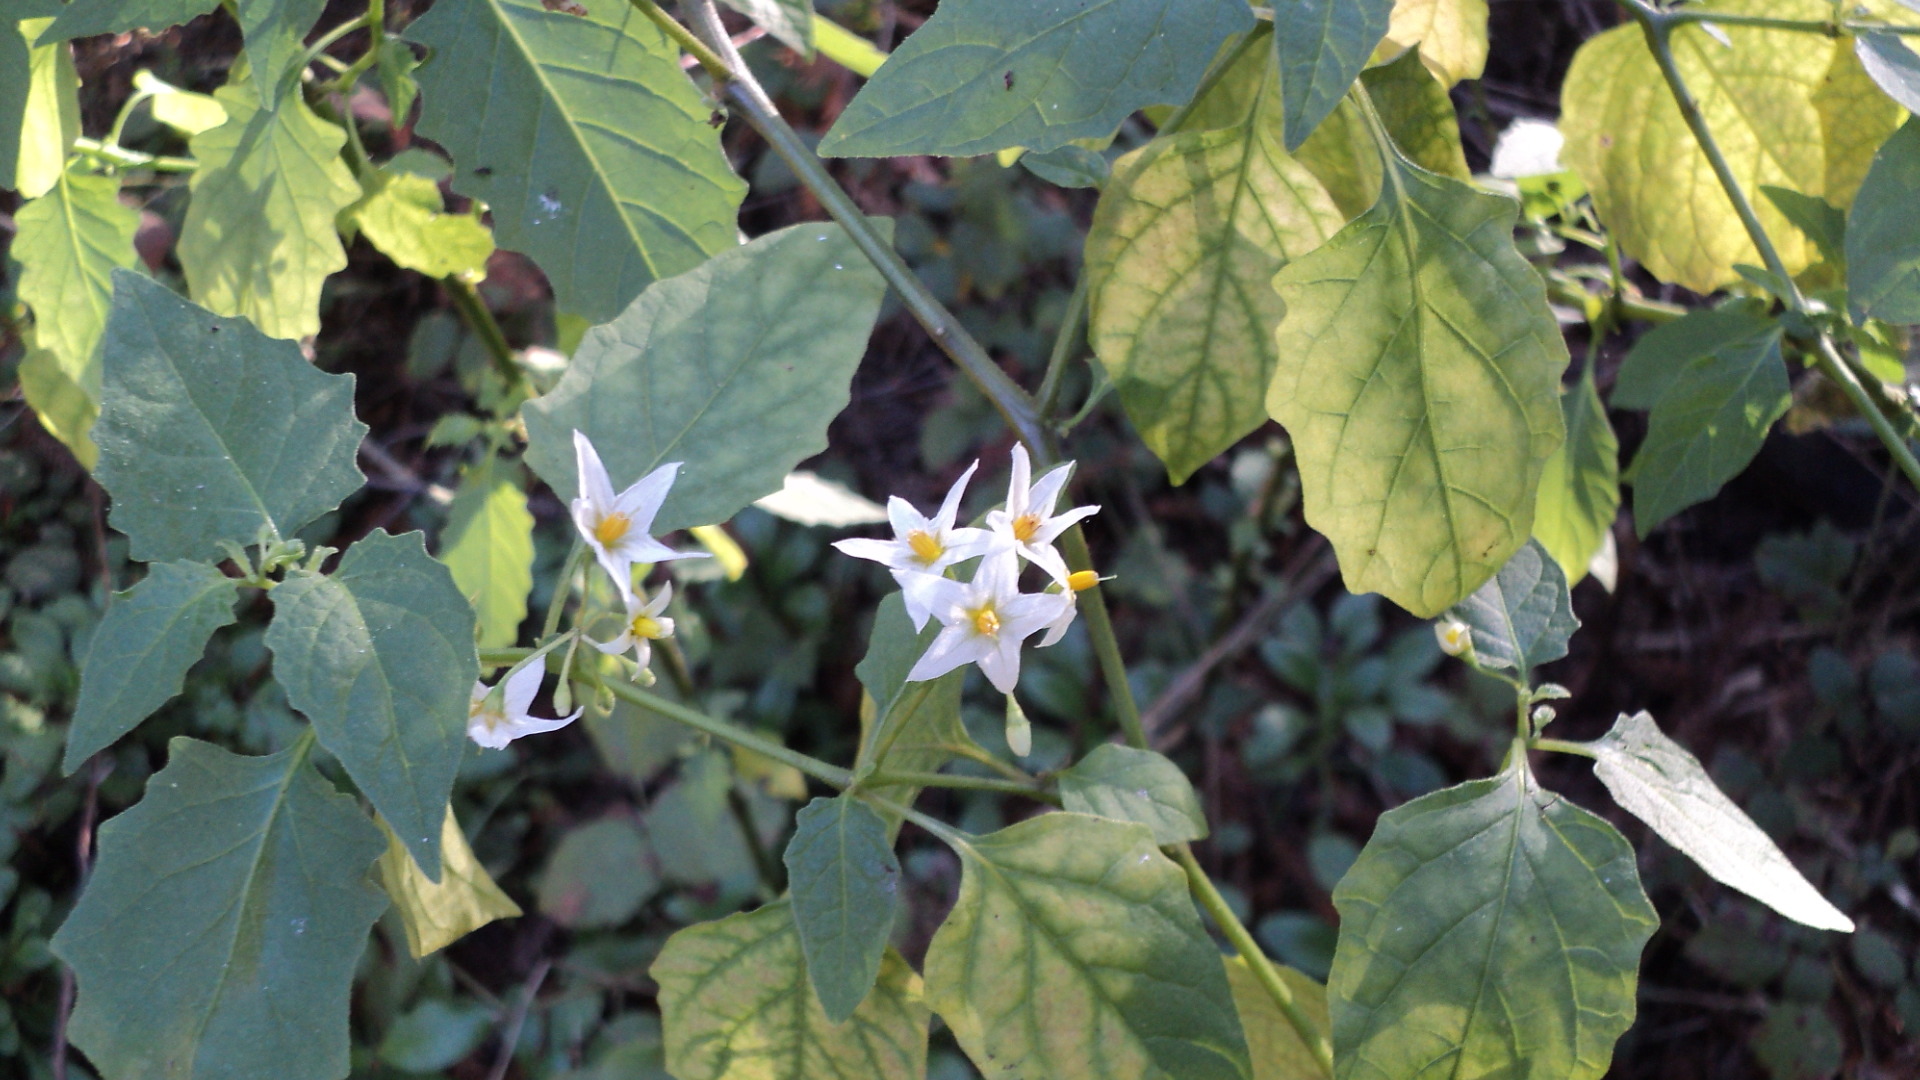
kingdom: Plantae
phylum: Tracheophyta
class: Magnoliopsida
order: Solanales
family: Solanaceae
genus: Solanum
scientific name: Solanum douglasii
